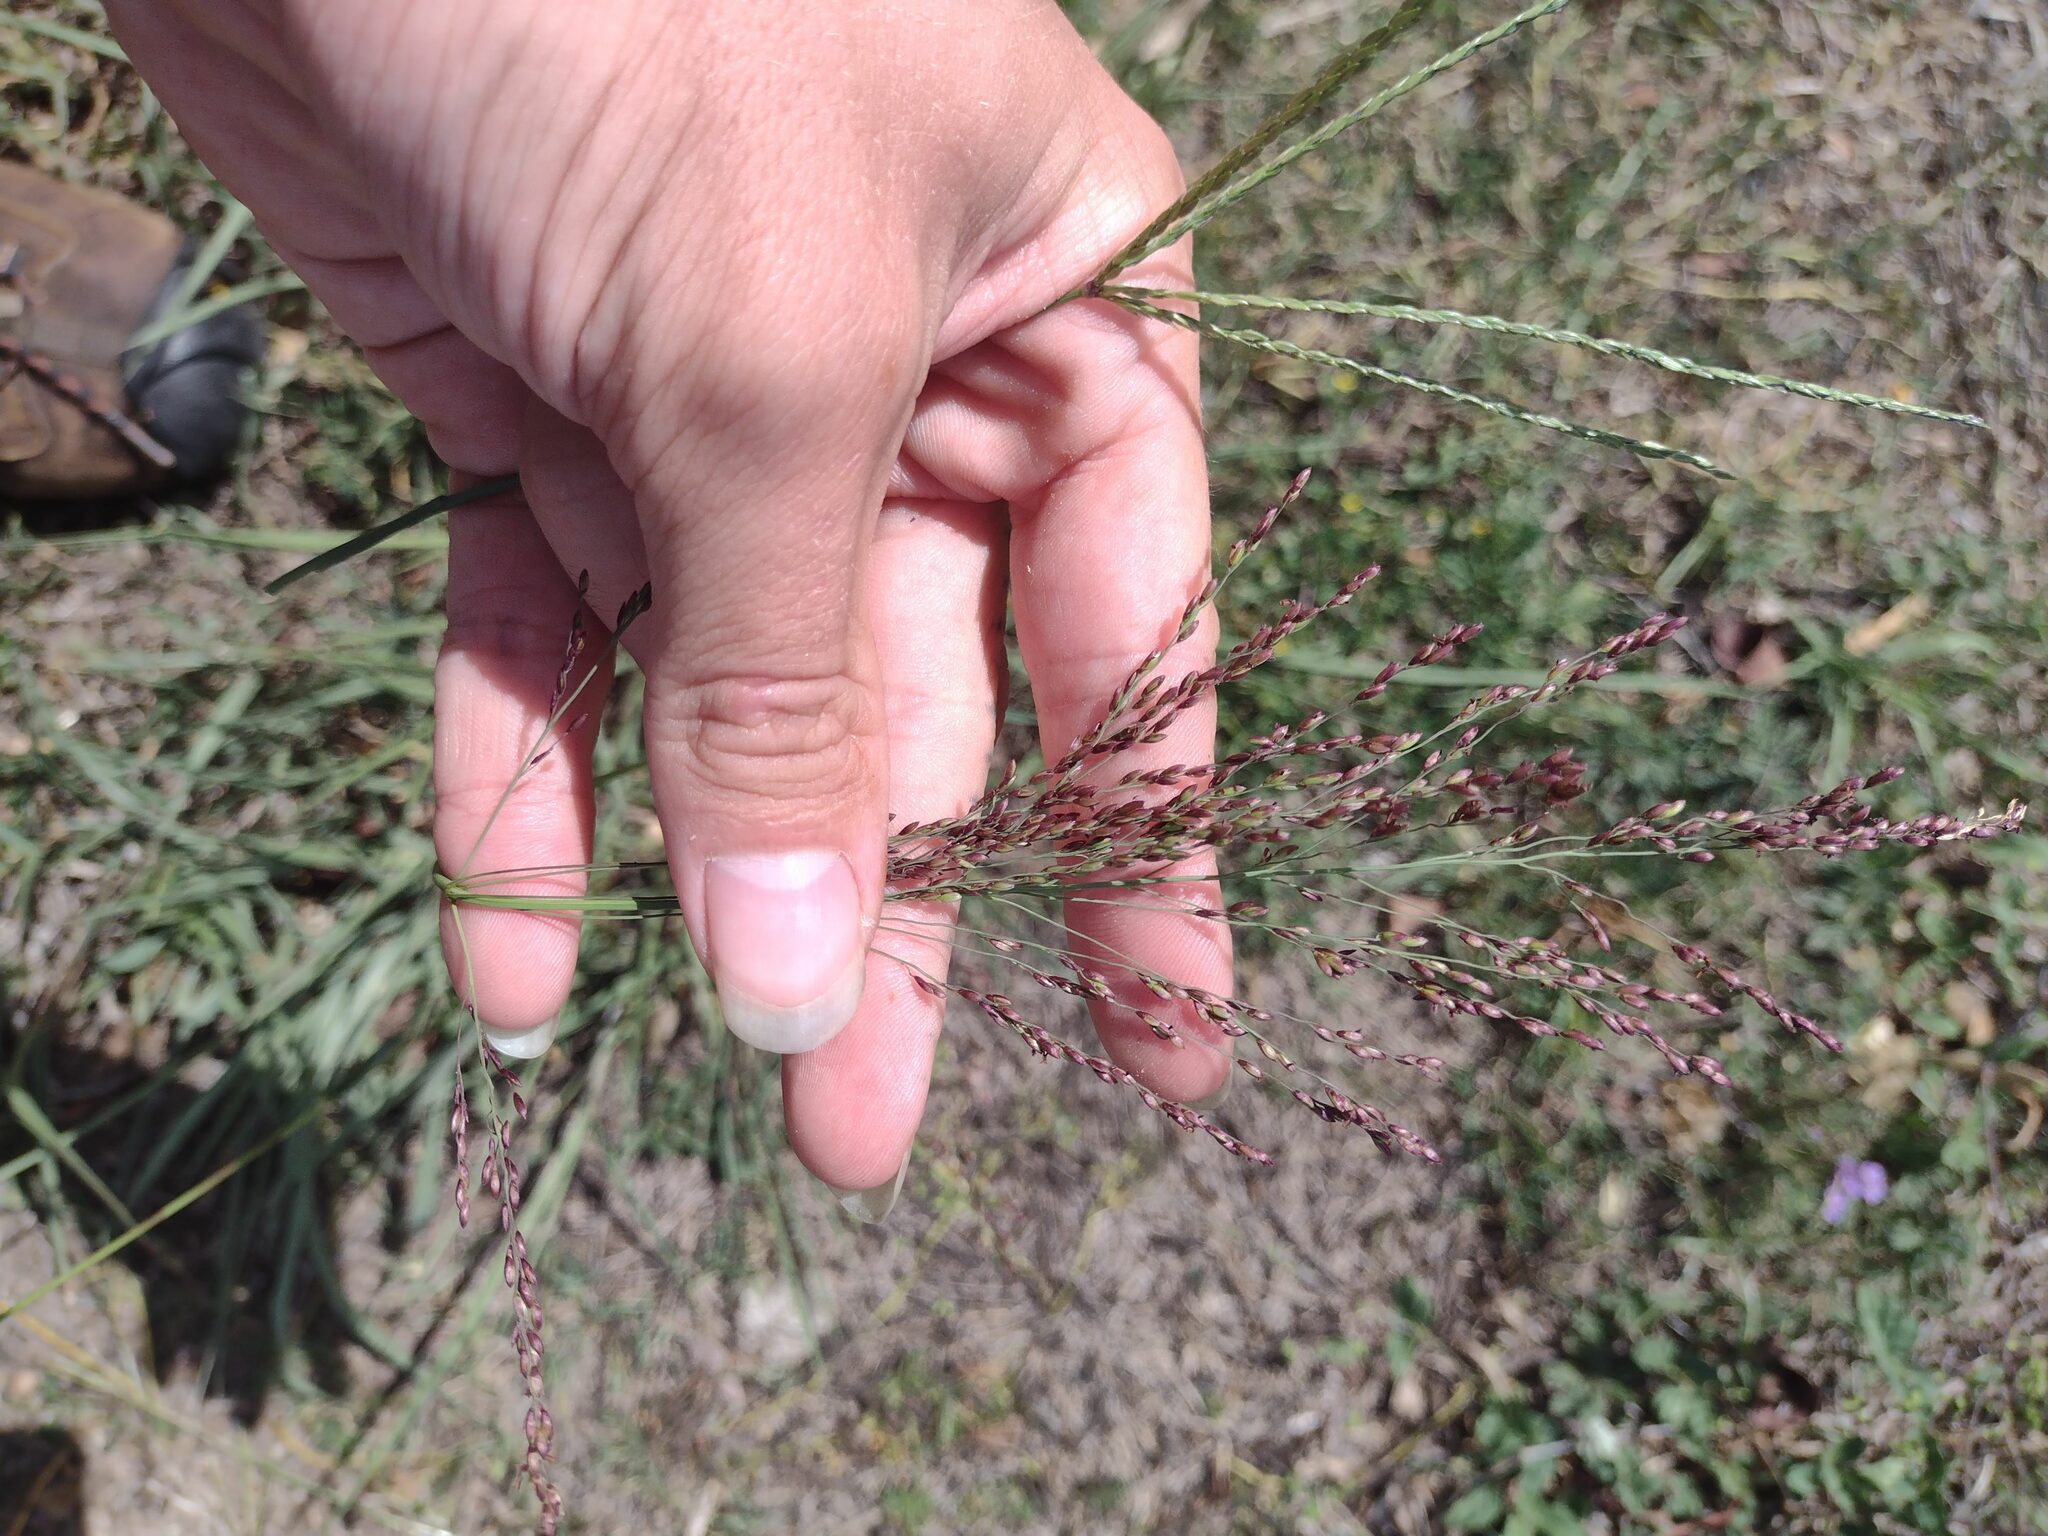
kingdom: Plantae
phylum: Tracheophyta
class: Liliopsida
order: Poales
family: Poaceae
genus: Megathyrsus
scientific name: Megathyrsus maximus
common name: Guineagrass
